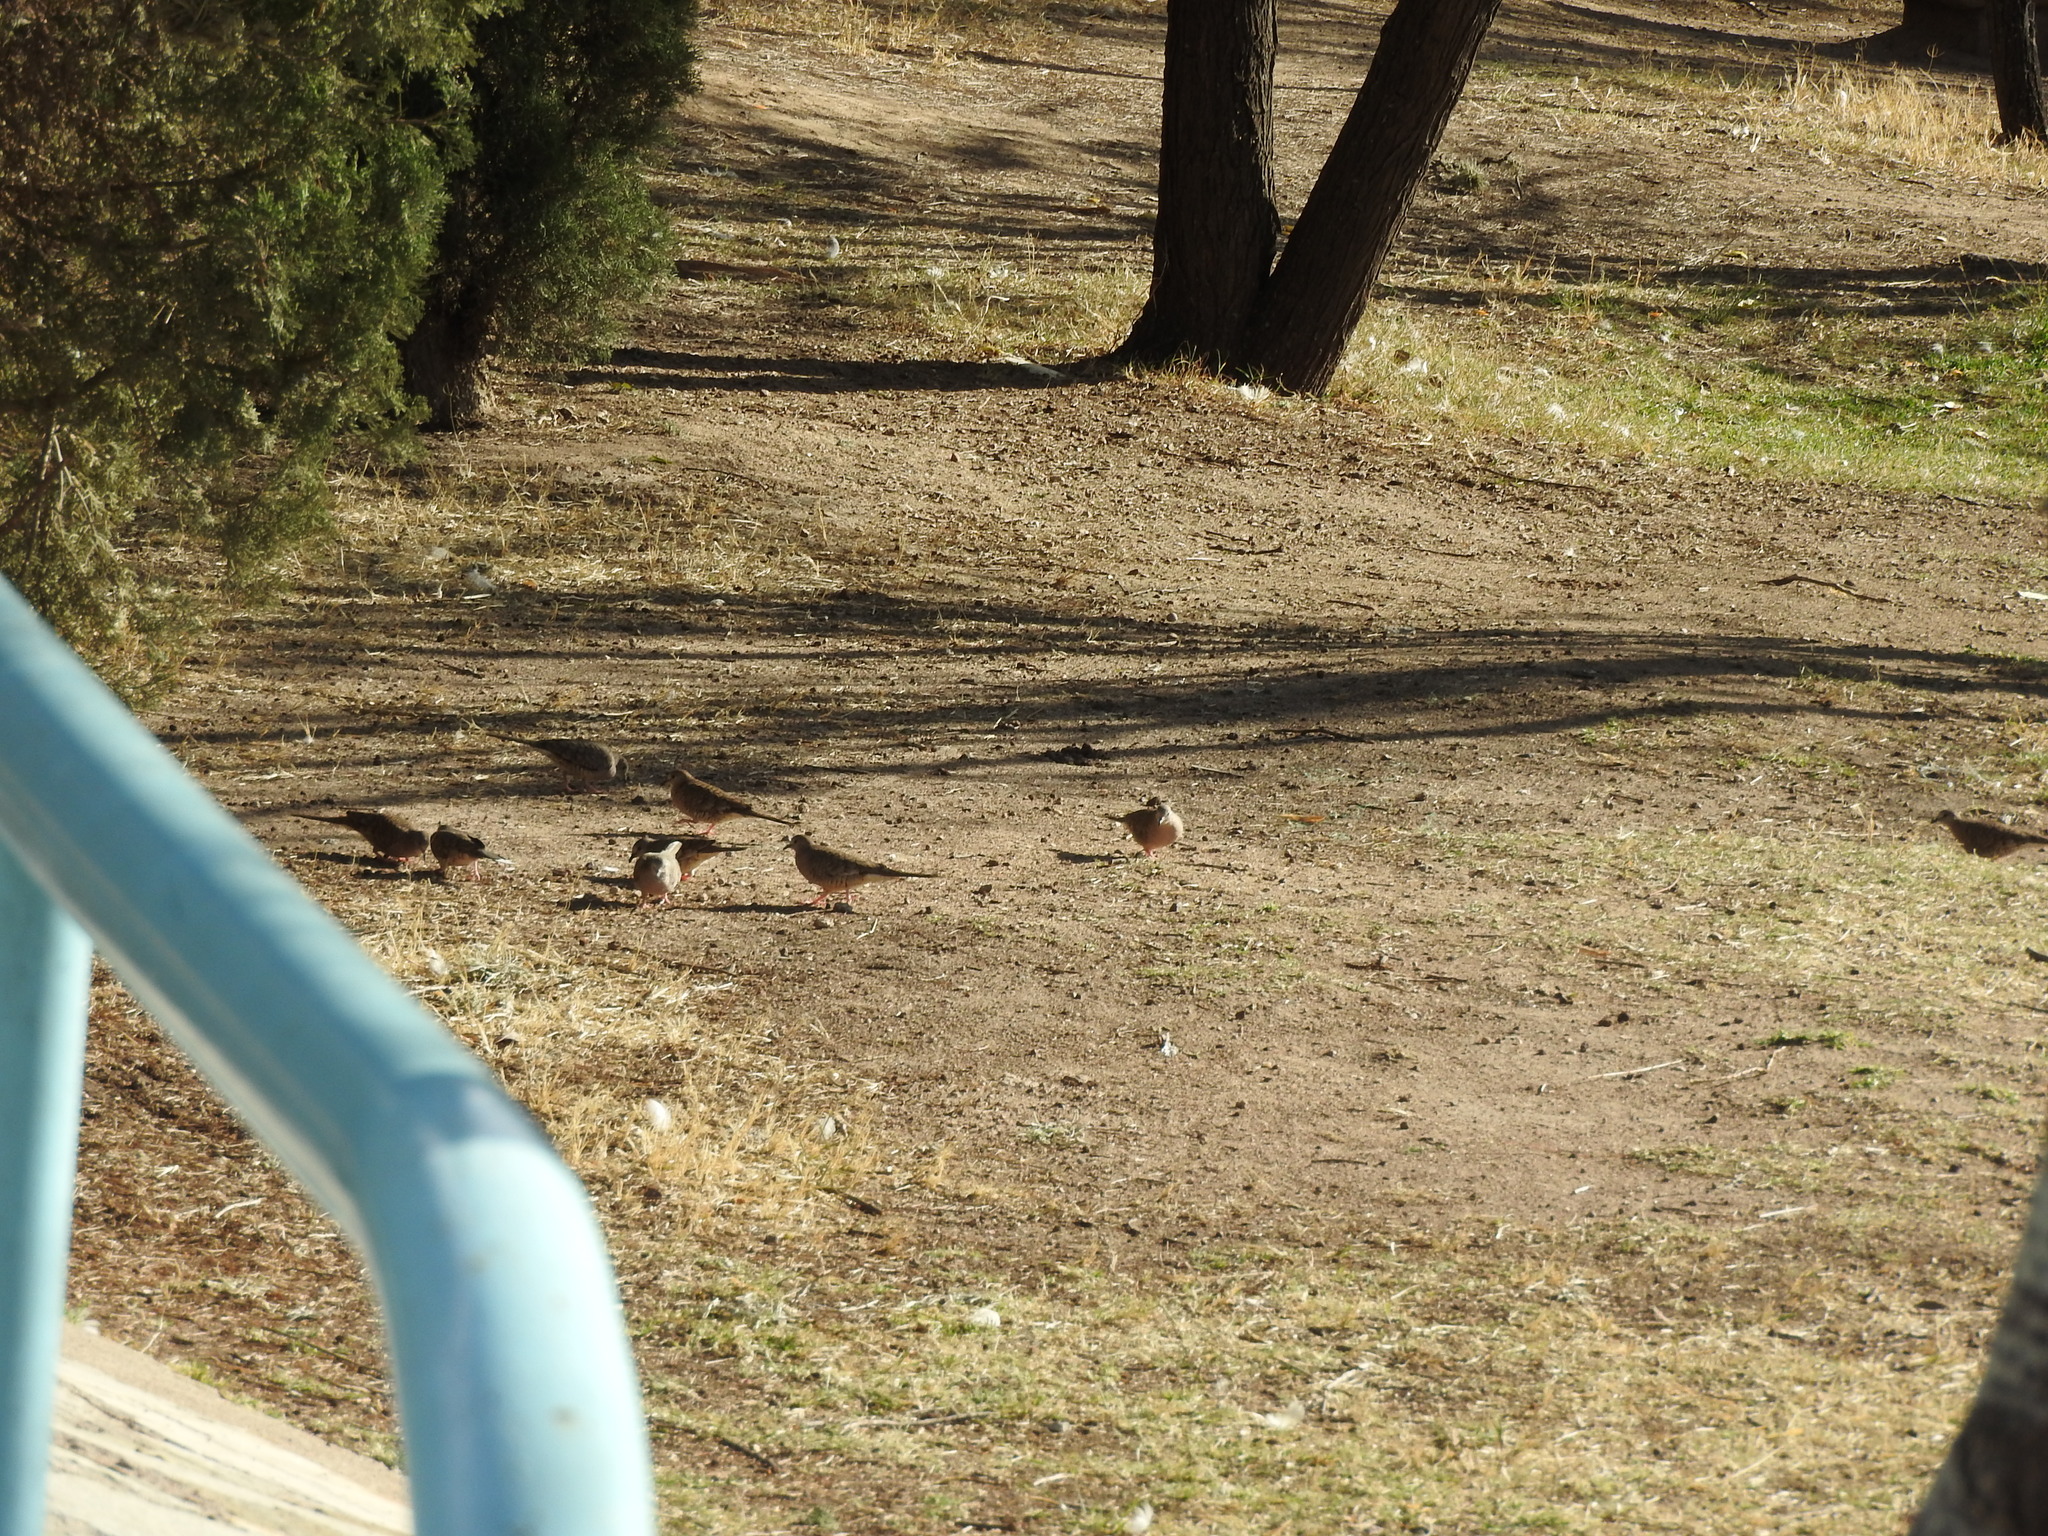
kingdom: Animalia
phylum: Chordata
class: Aves
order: Columbiformes
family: Columbidae
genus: Columbina
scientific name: Columbina inca
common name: Inca dove
